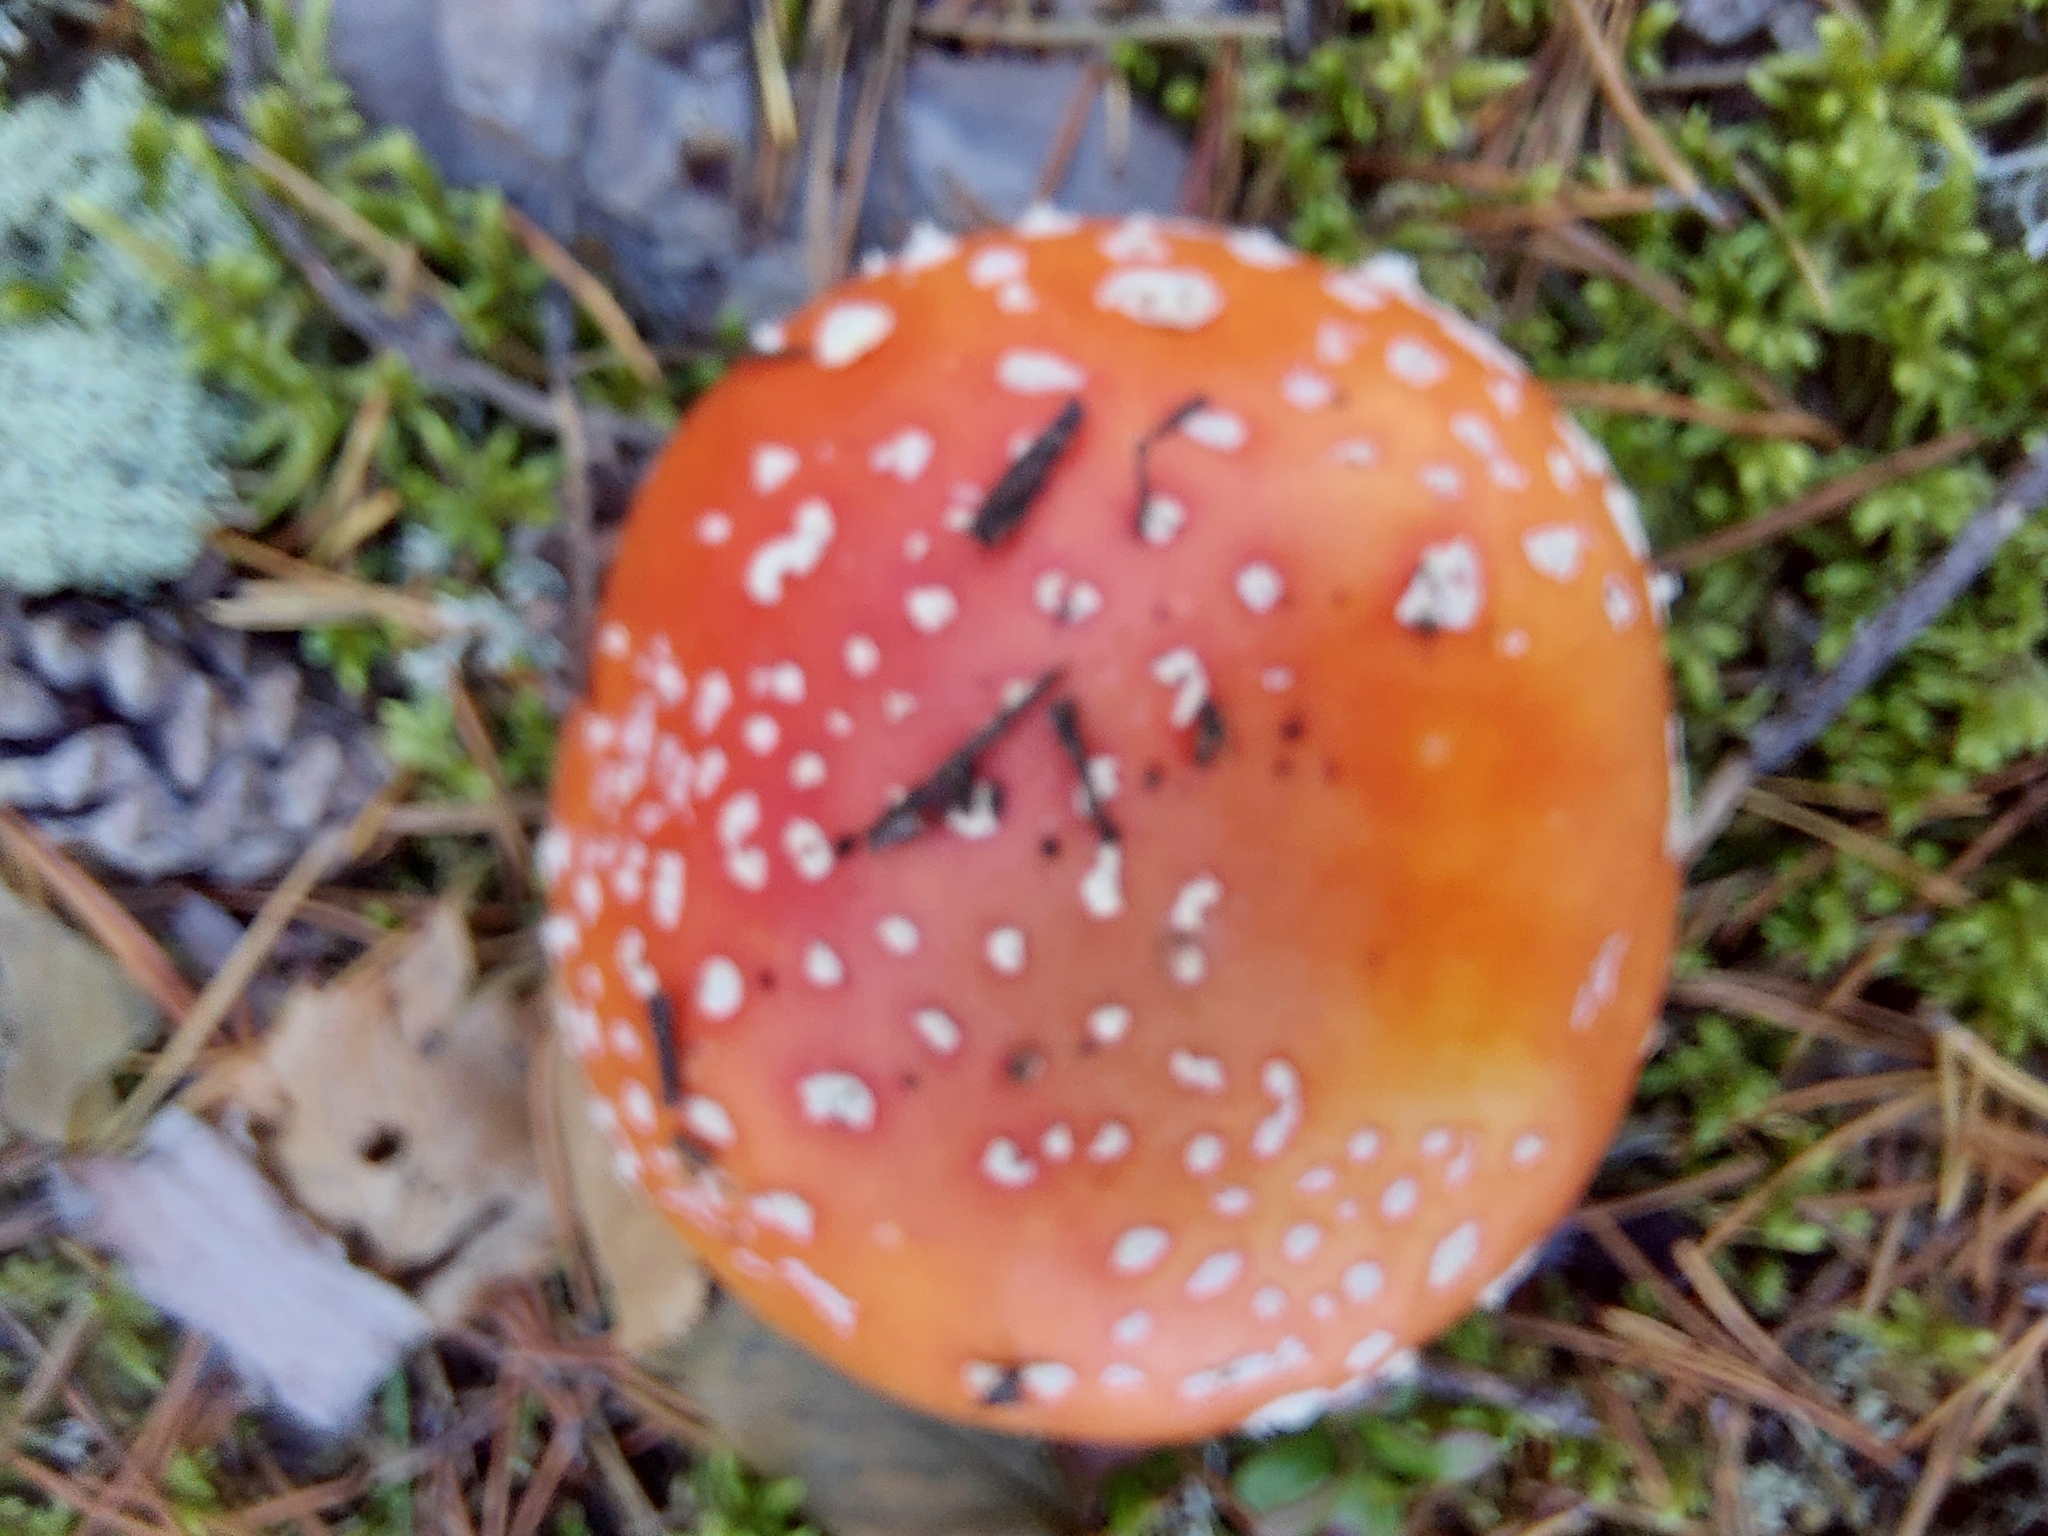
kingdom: Fungi
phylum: Basidiomycota
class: Agaricomycetes
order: Agaricales
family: Amanitaceae
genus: Amanita
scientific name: Amanita muscaria
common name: Fly agaric
